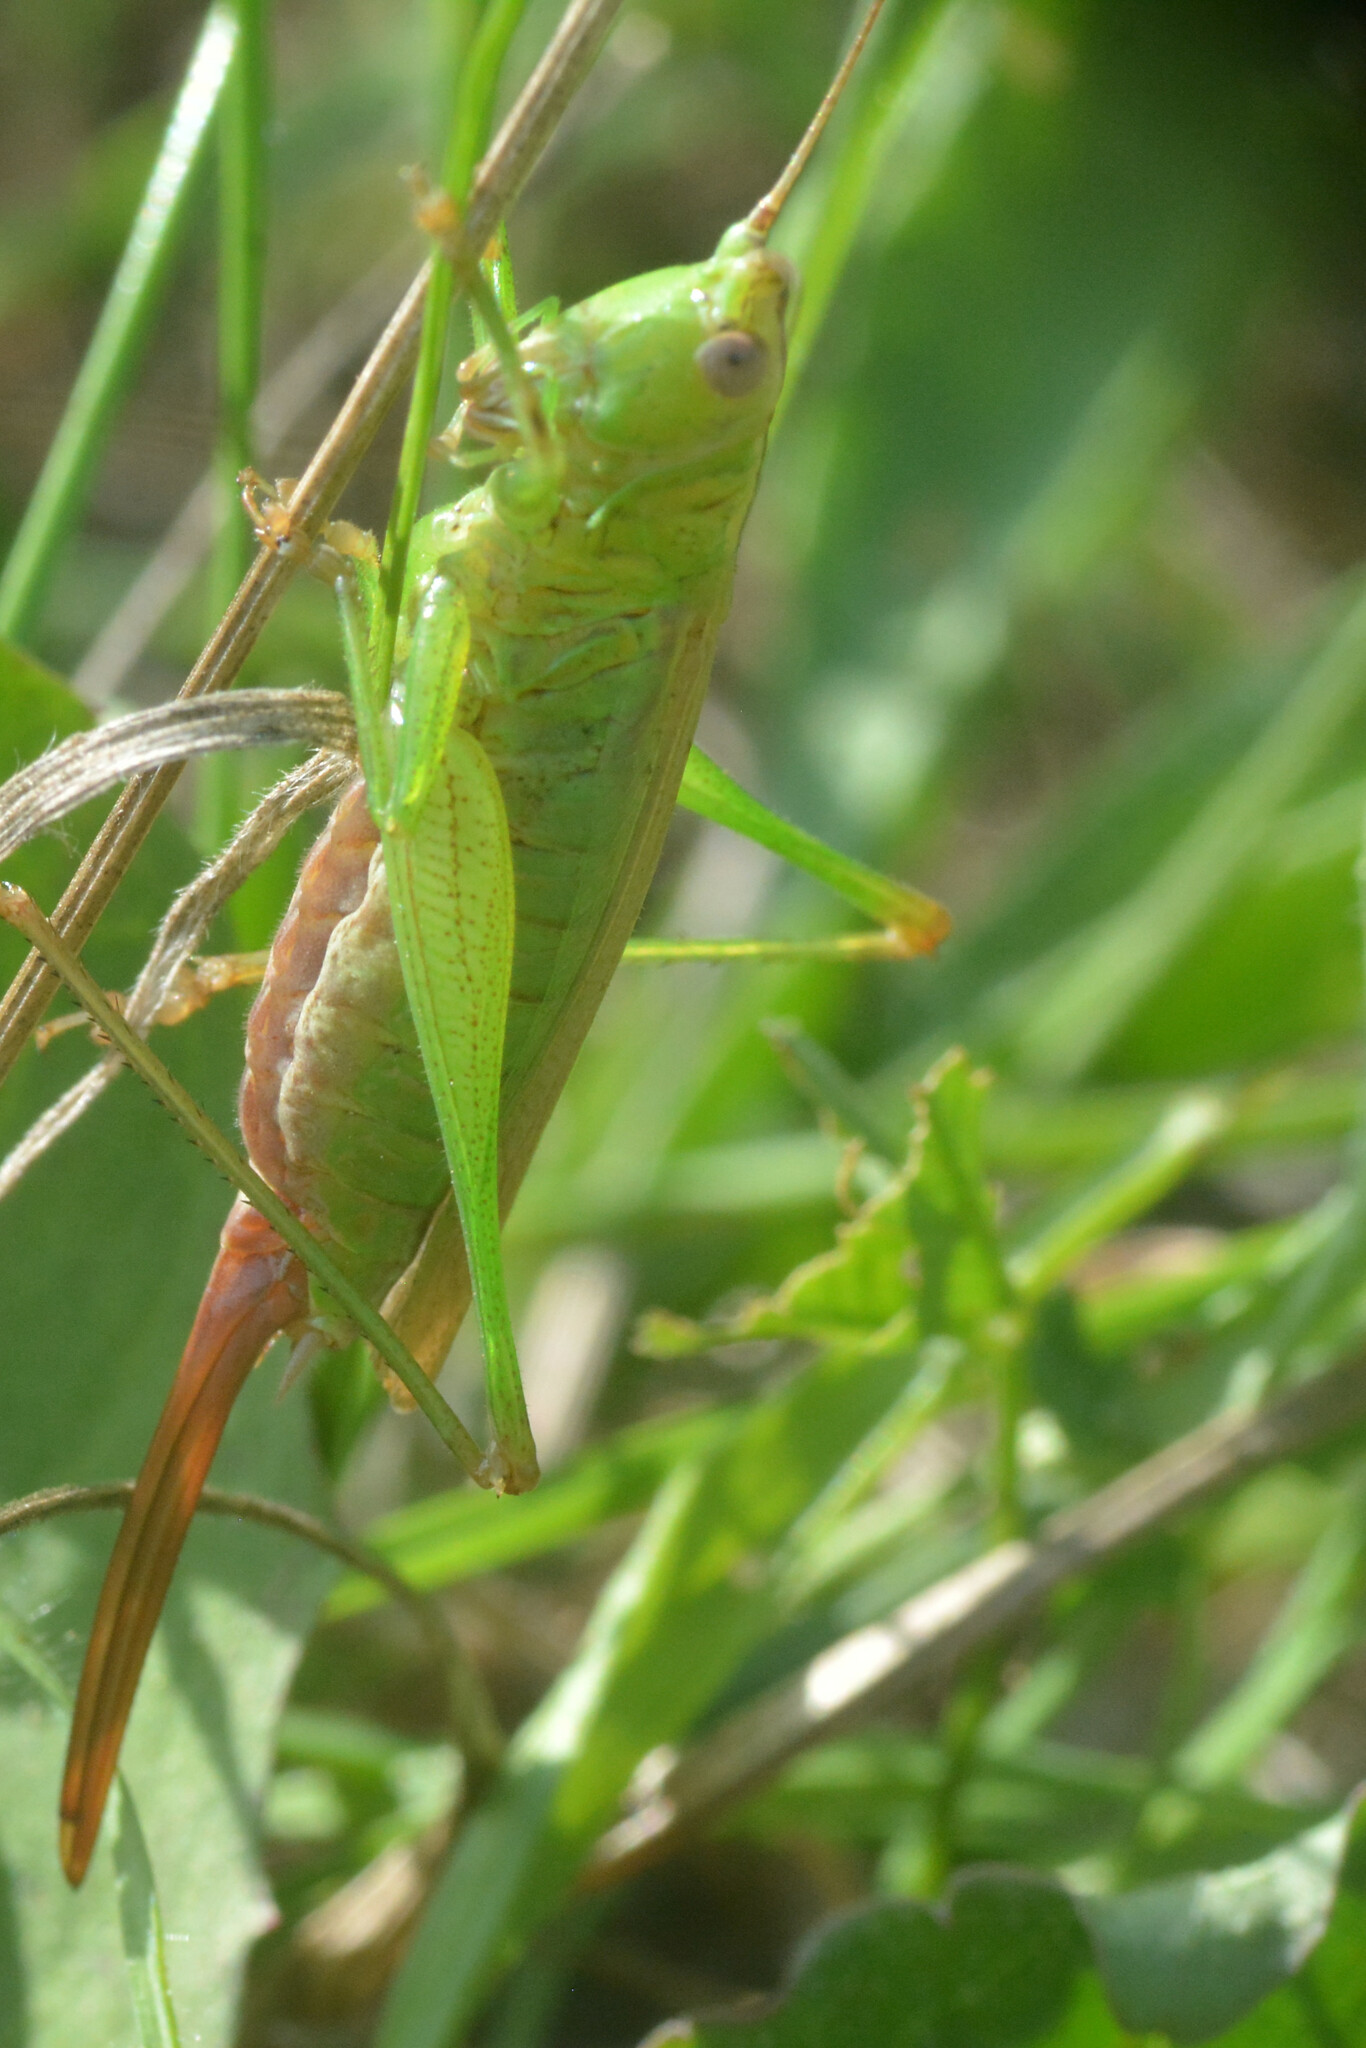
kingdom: Animalia
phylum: Arthropoda
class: Insecta
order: Orthoptera
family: Tettigoniidae
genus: Conocephalus
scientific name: Conocephalus fuscus
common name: Long-winged conehead
